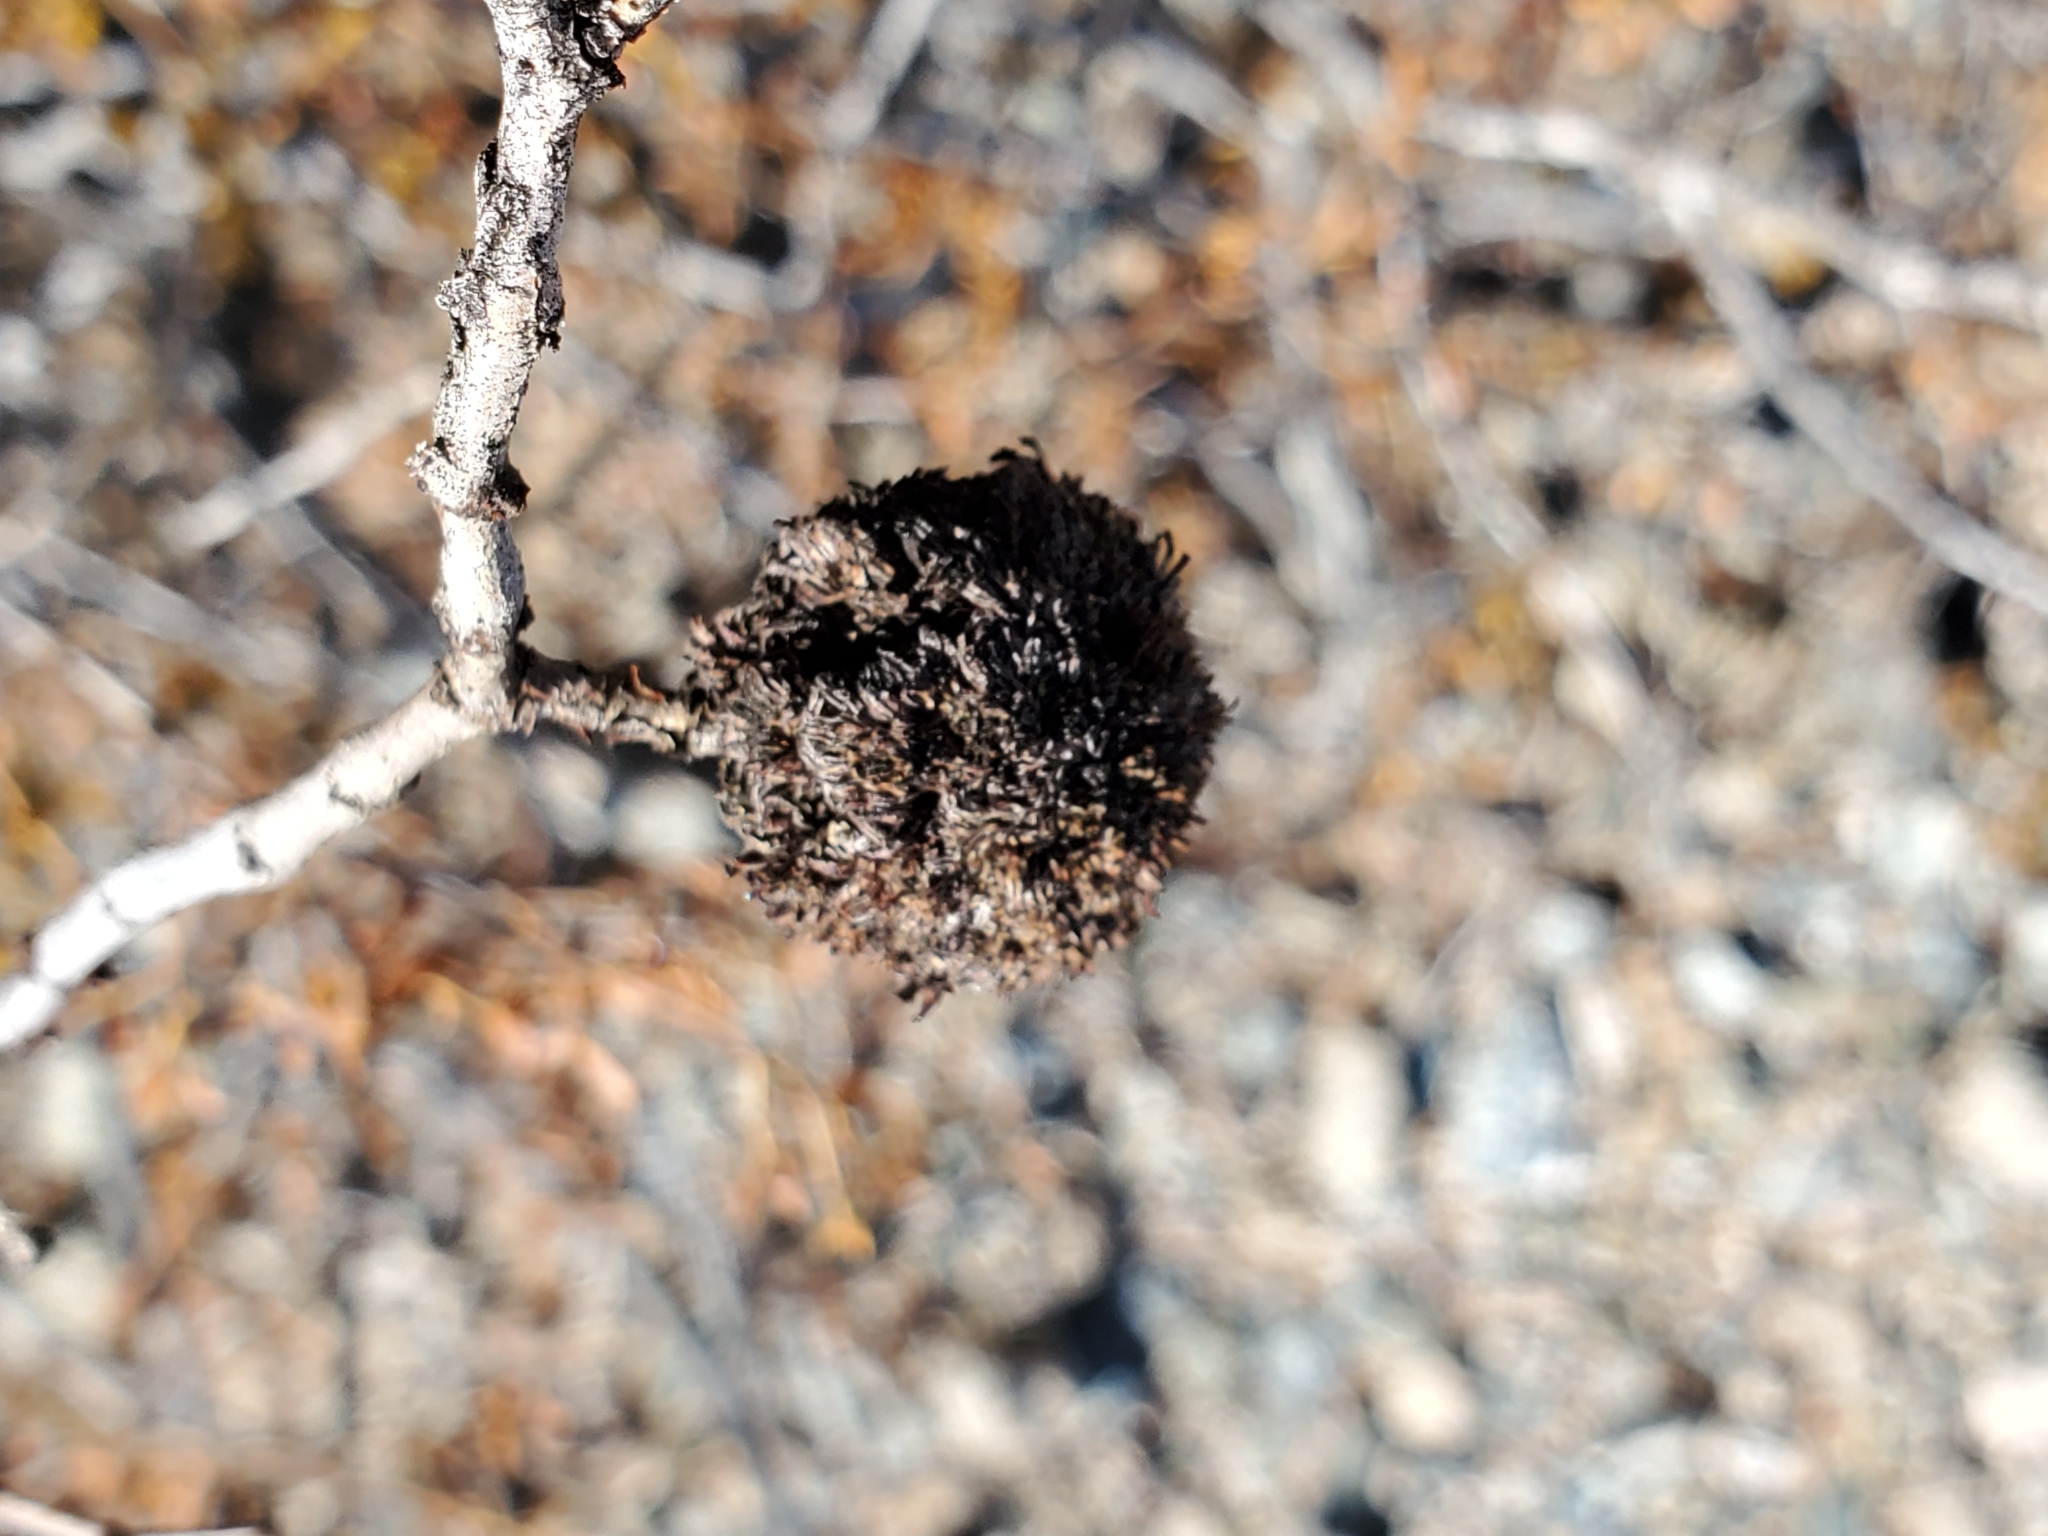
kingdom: Animalia
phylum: Arthropoda
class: Insecta
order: Diptera
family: Cecidomyiidae
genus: Asphondylia
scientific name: Asphondylia auripila
